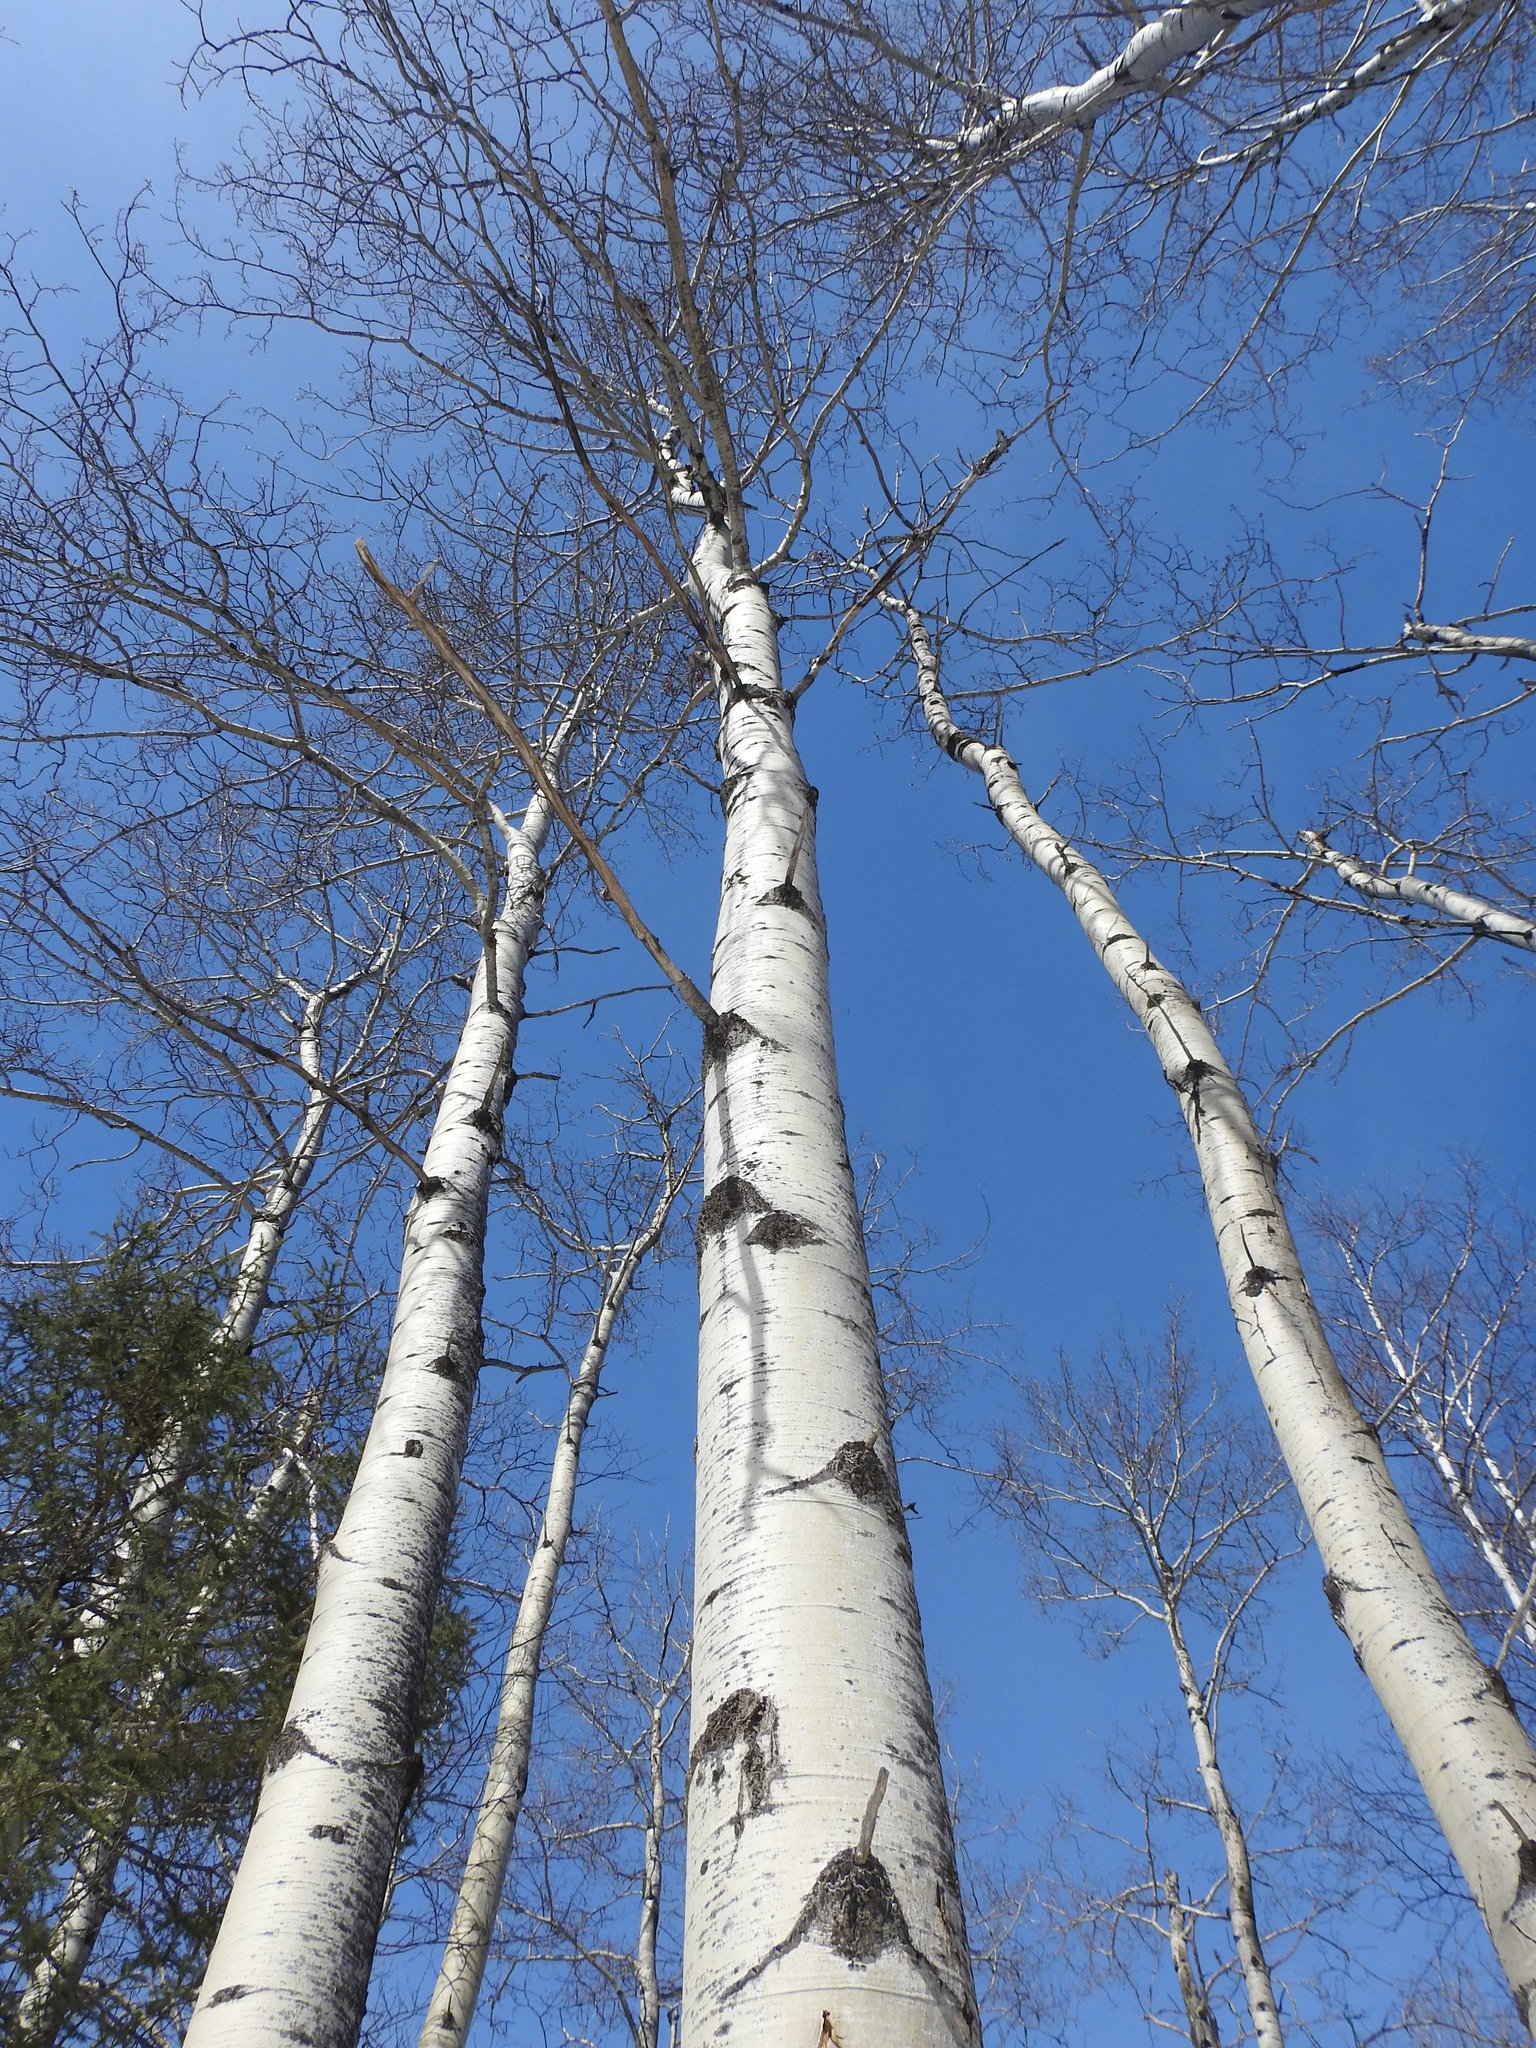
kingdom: Plantae
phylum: Tracheophyta
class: Magnoliopsida
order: Malpighiales
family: Salicaceae
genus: Populus
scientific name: Populus tremuloides
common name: Quaking aspen
